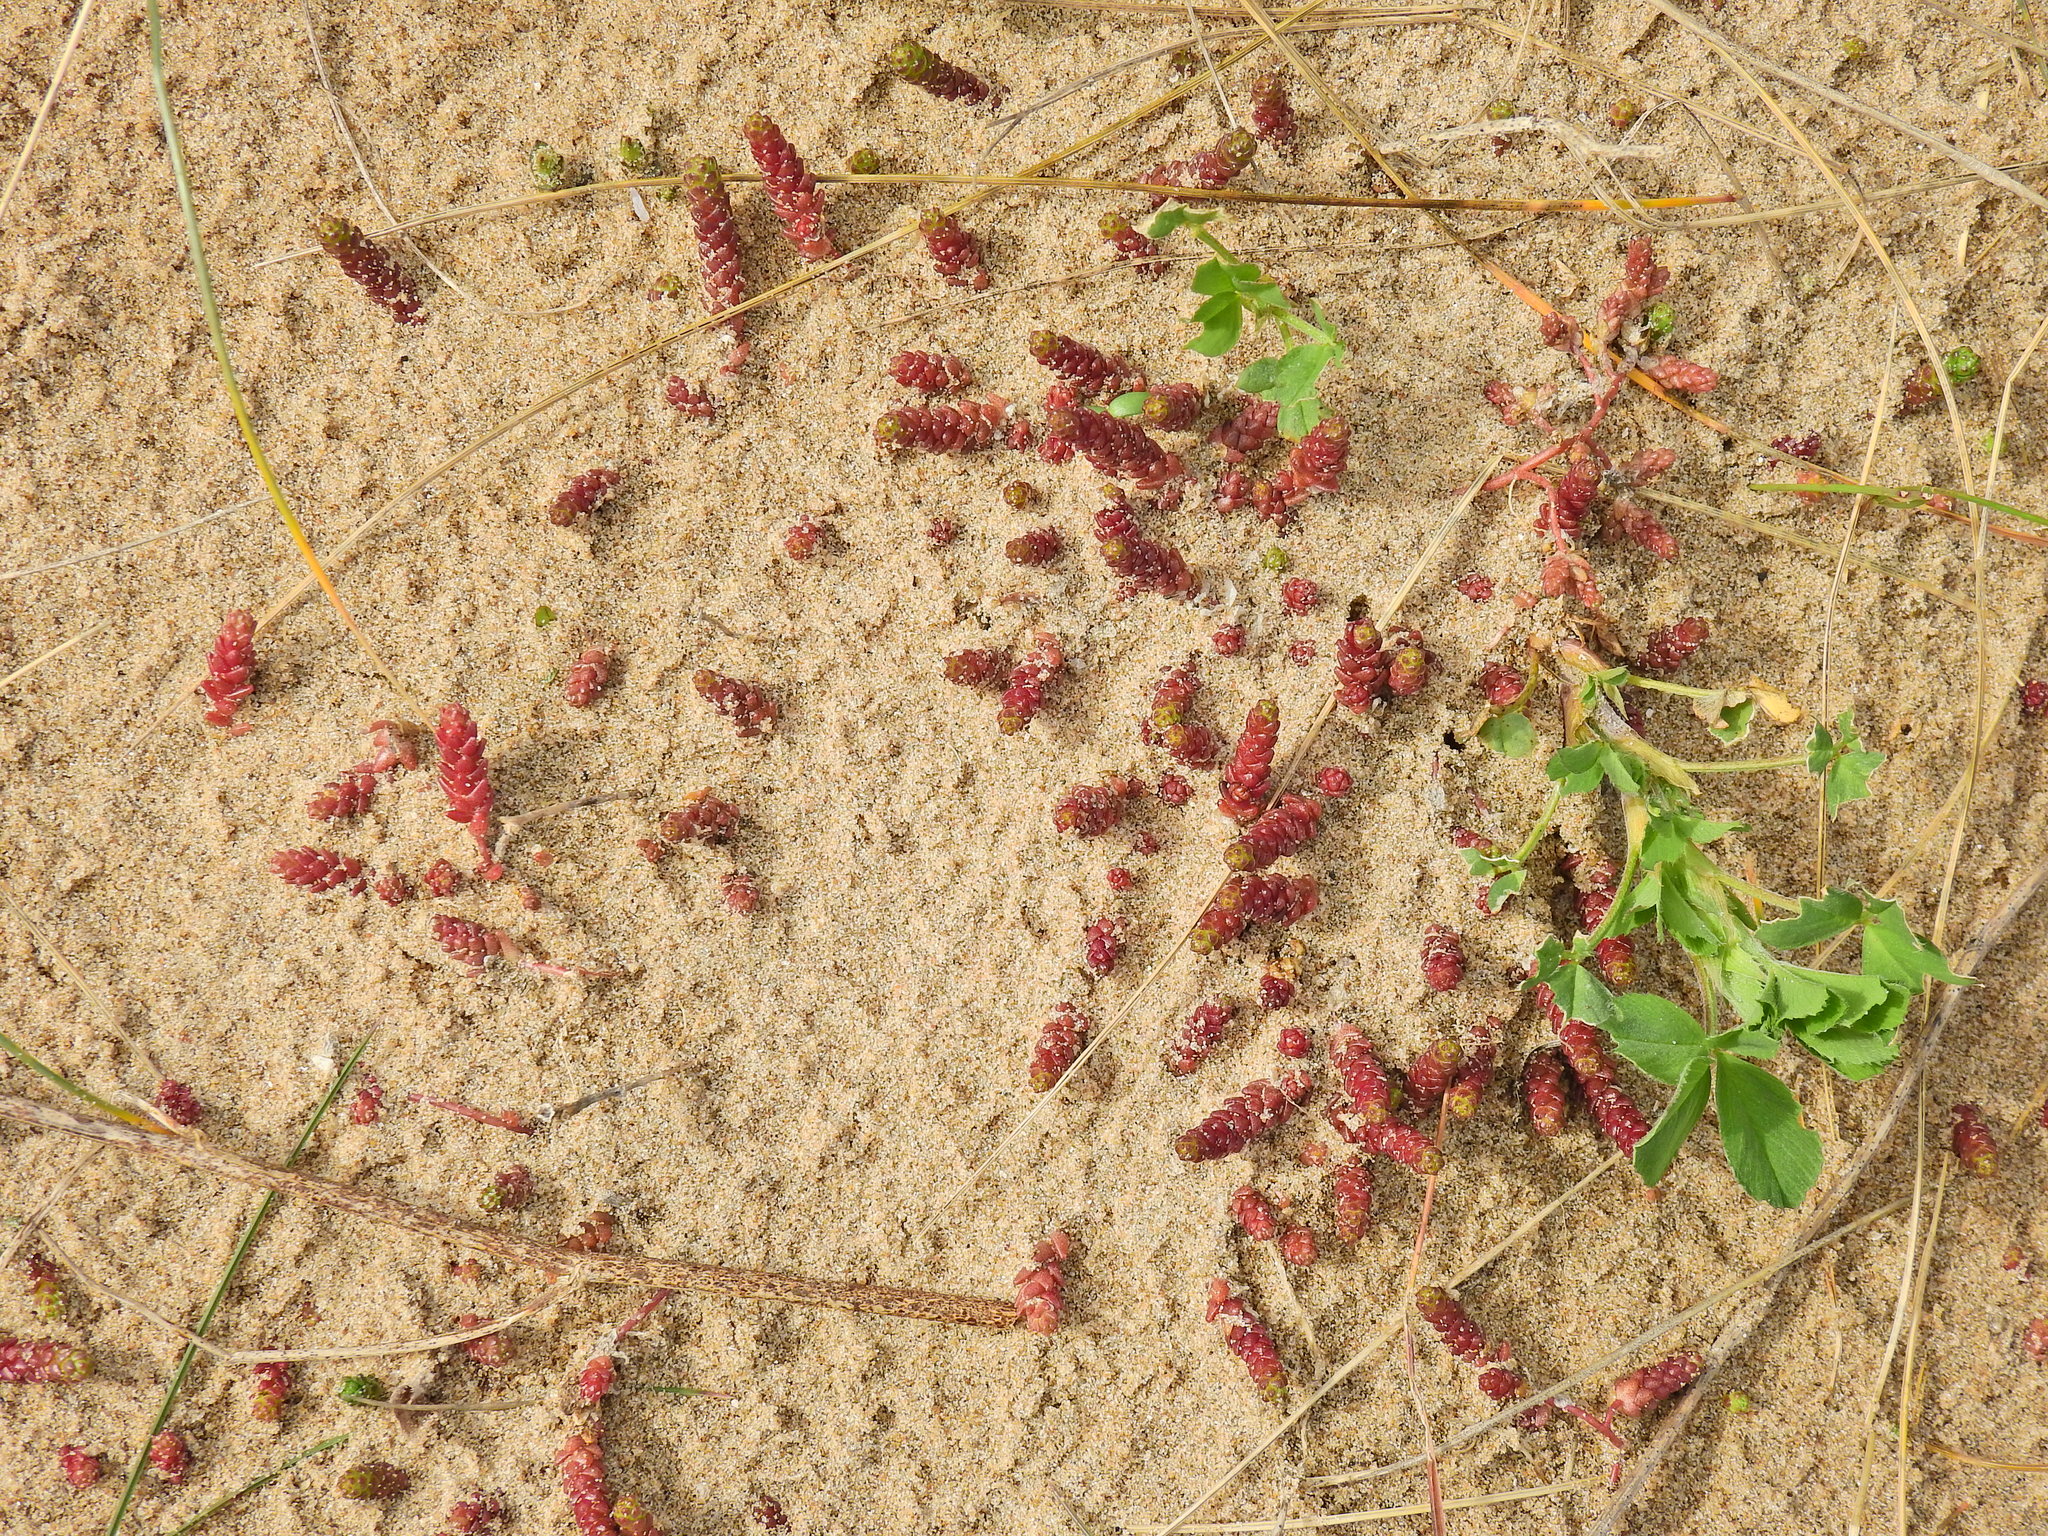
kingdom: Plantae
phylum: Tracheophyta
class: Magnoliopsida
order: Saxifragales
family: Crassulaceae
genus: Sedum
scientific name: Sedum acre
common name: Biting stonecrop
